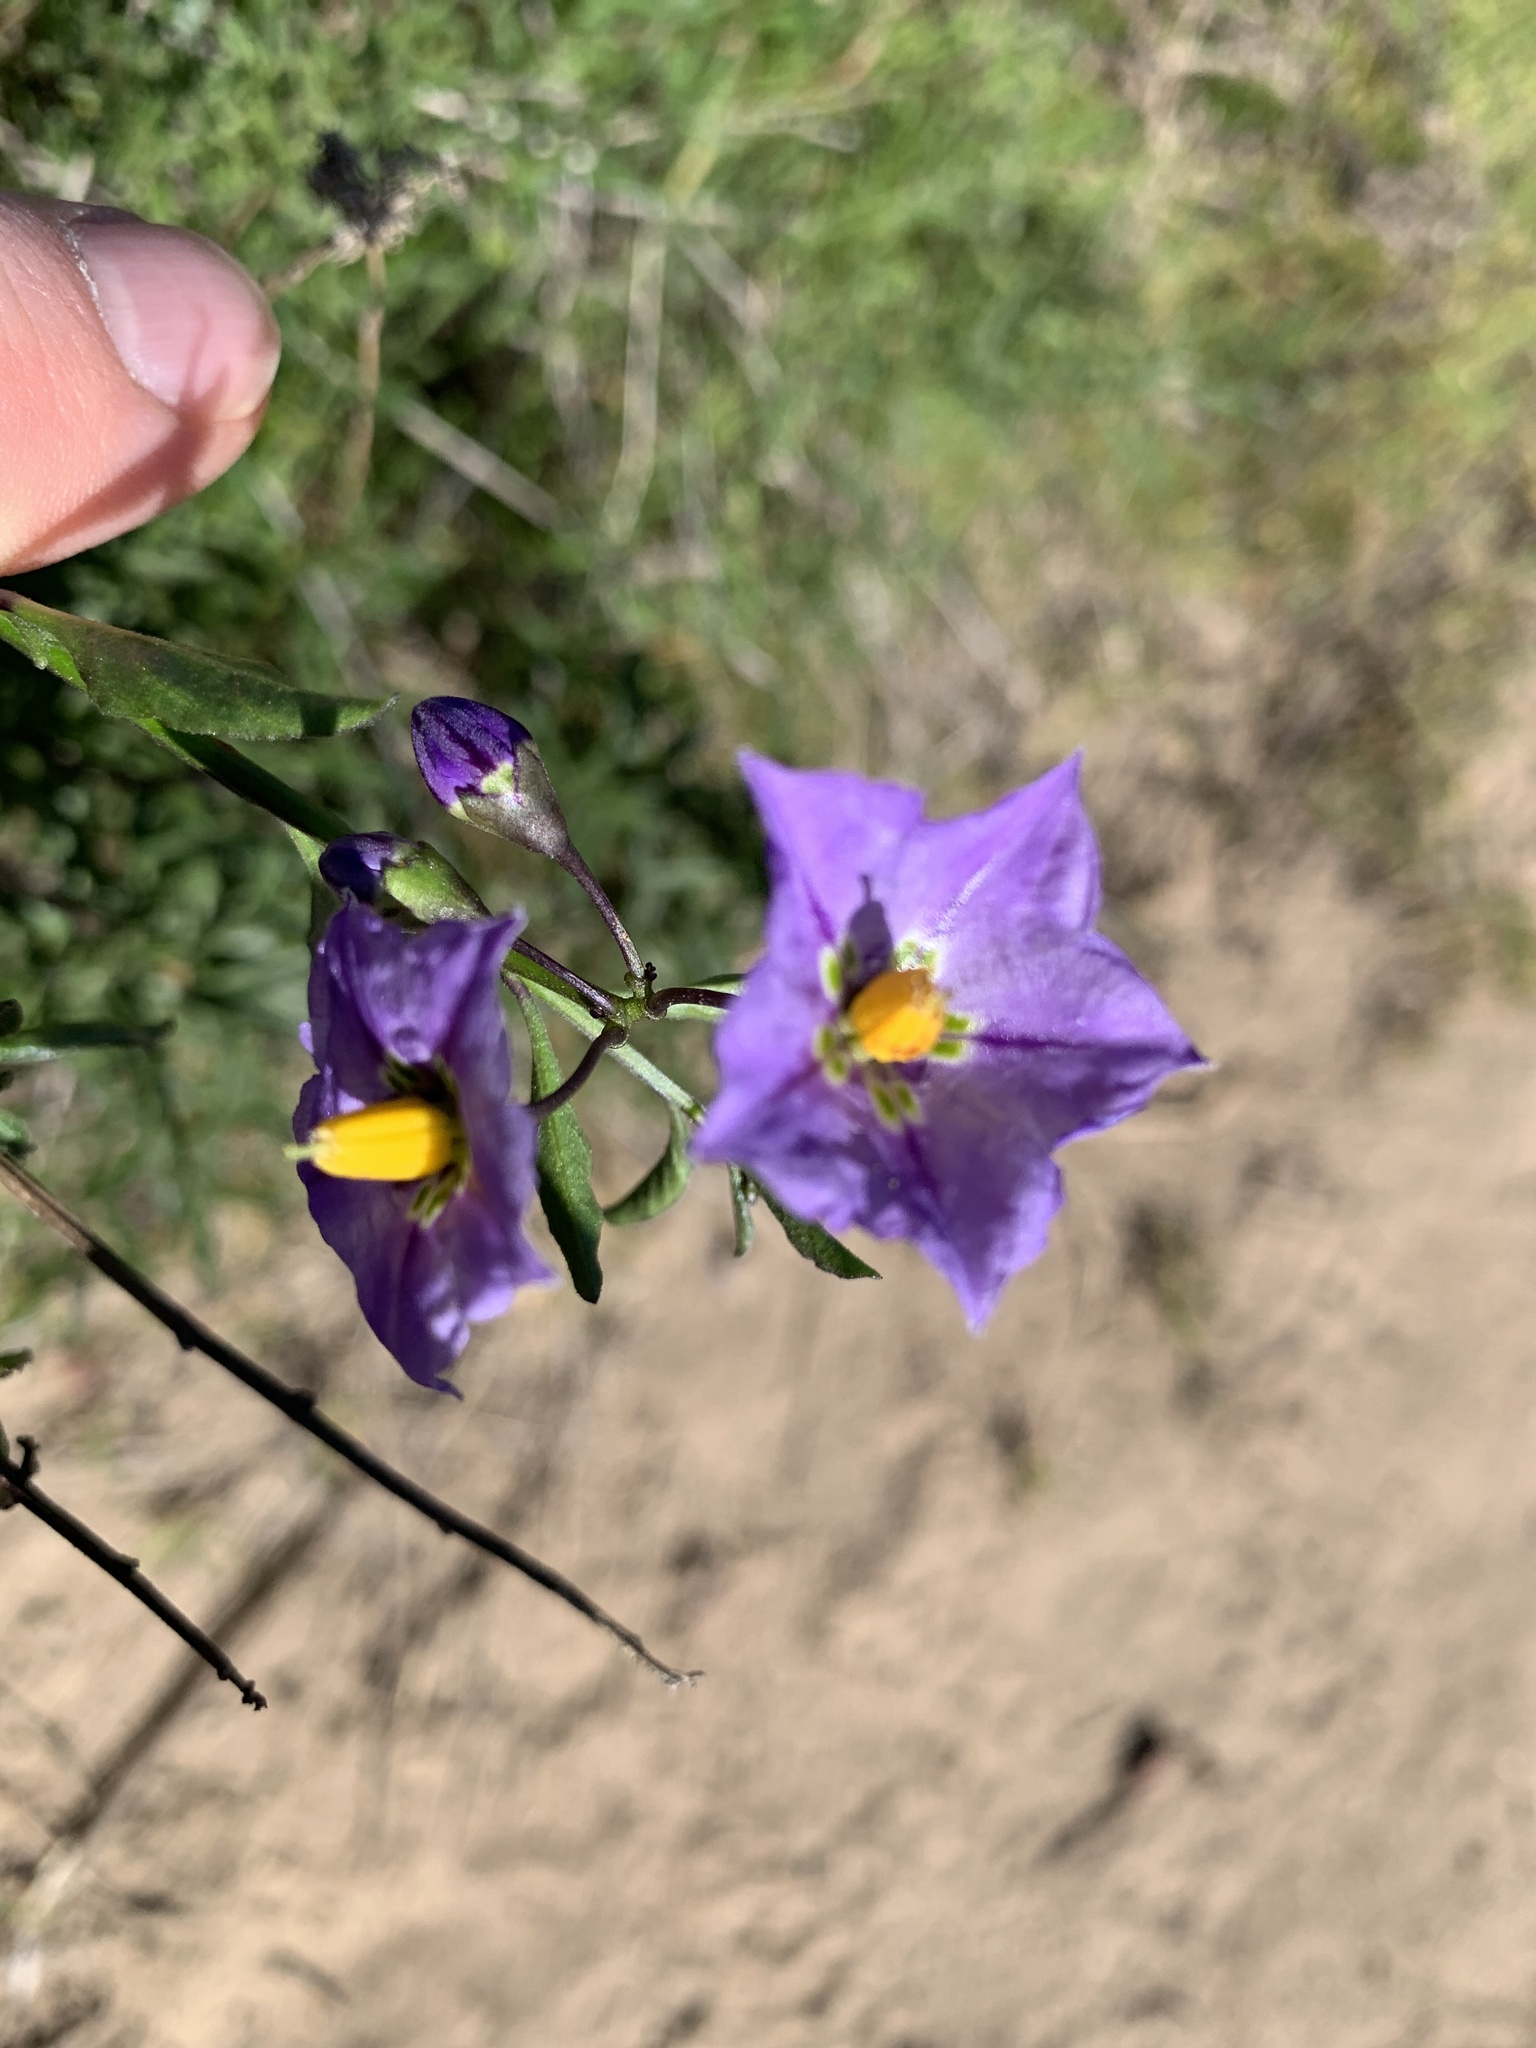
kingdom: Plantae
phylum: Tracheophyta
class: Magnoliopsida
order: Solanales
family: Solanaceae
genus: Solanum
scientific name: Solanum umbelliferum
